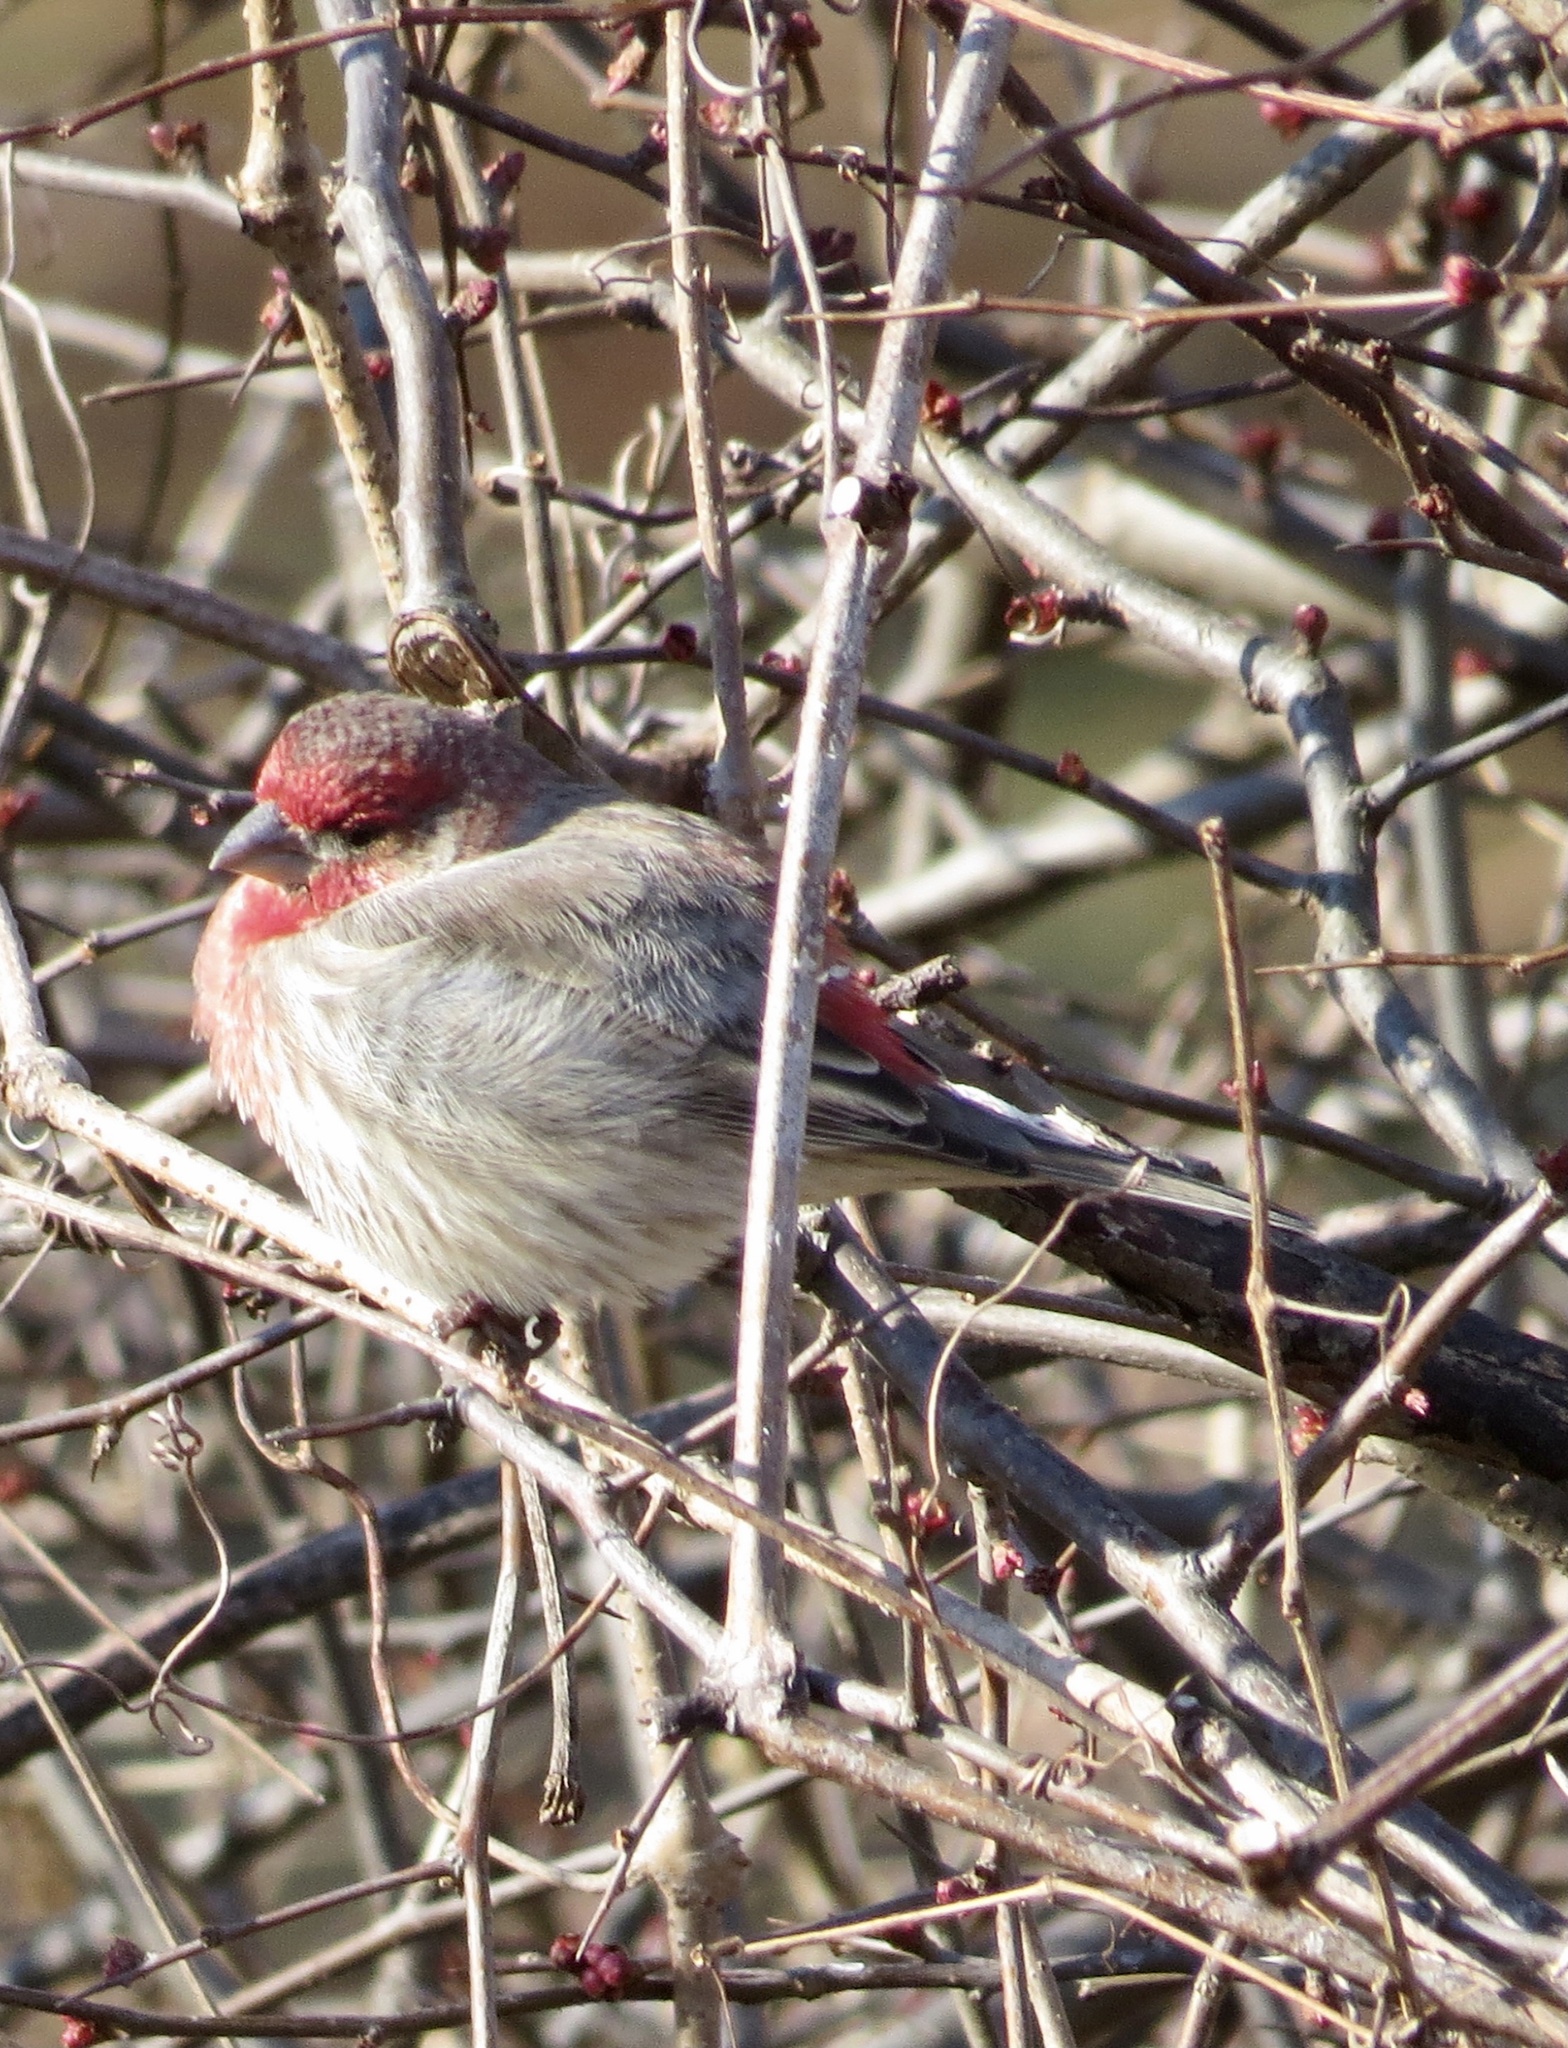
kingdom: Animalia
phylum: Chordata
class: Aves
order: Passeriformes
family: Fringillidae
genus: Haemorhous
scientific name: Haemorhous mexicanus
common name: House finch
